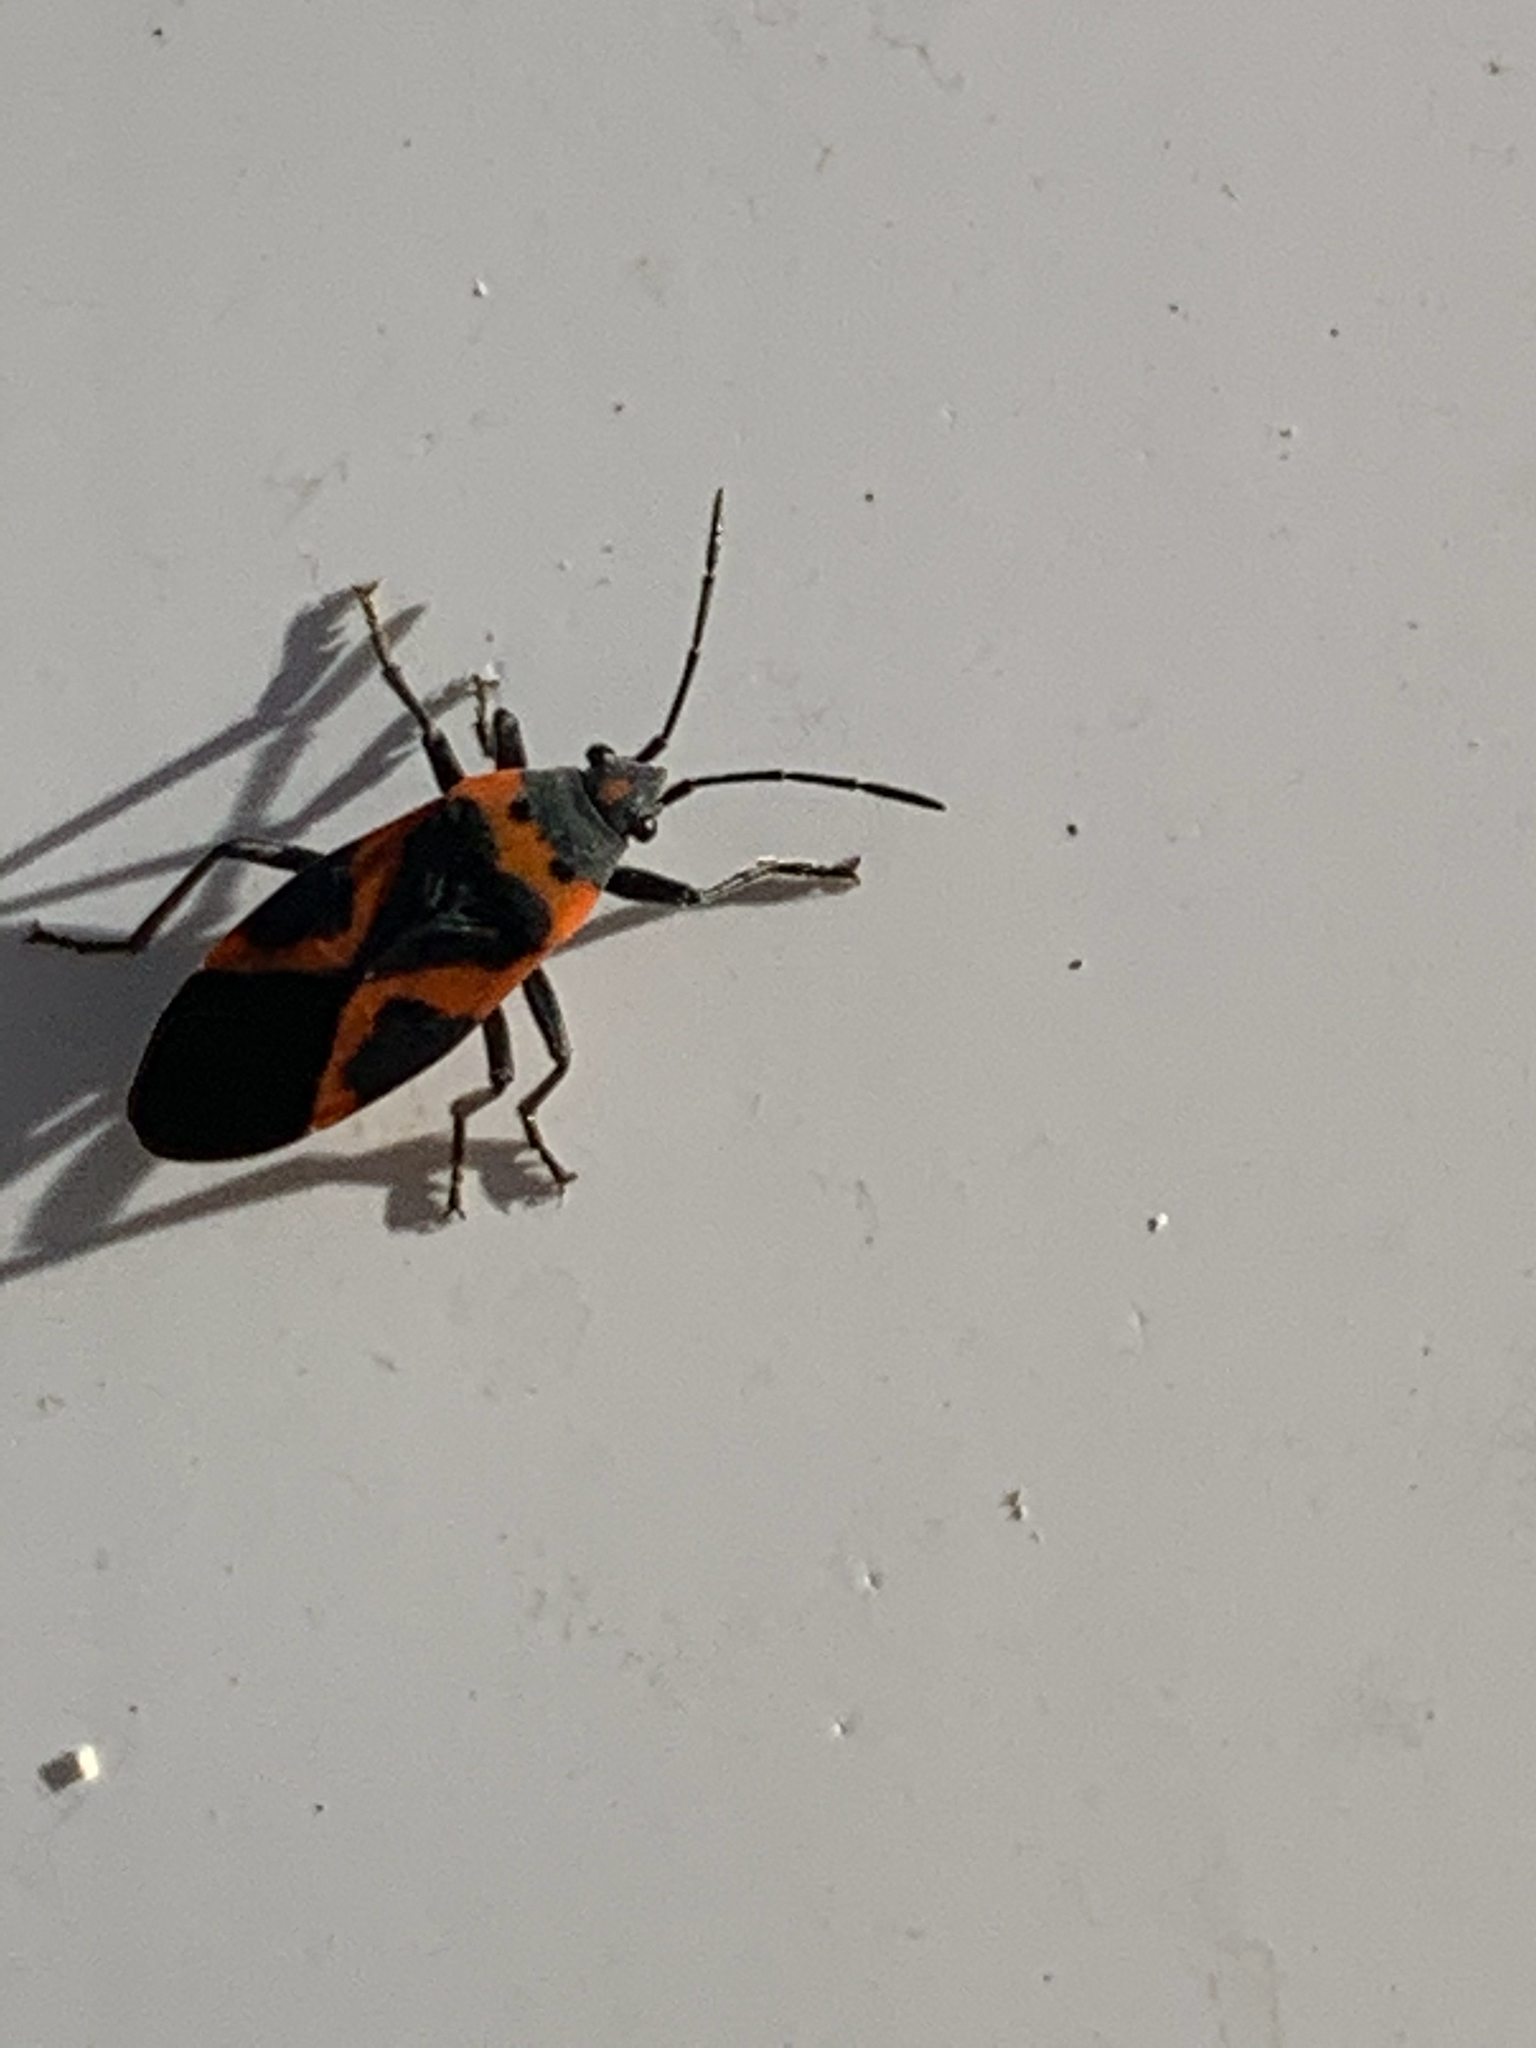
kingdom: Animalia
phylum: Arthropoda
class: Insecta
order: Hemiptera
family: Lygaeidae
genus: Lygaeus
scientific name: Lygaeus kalmii
